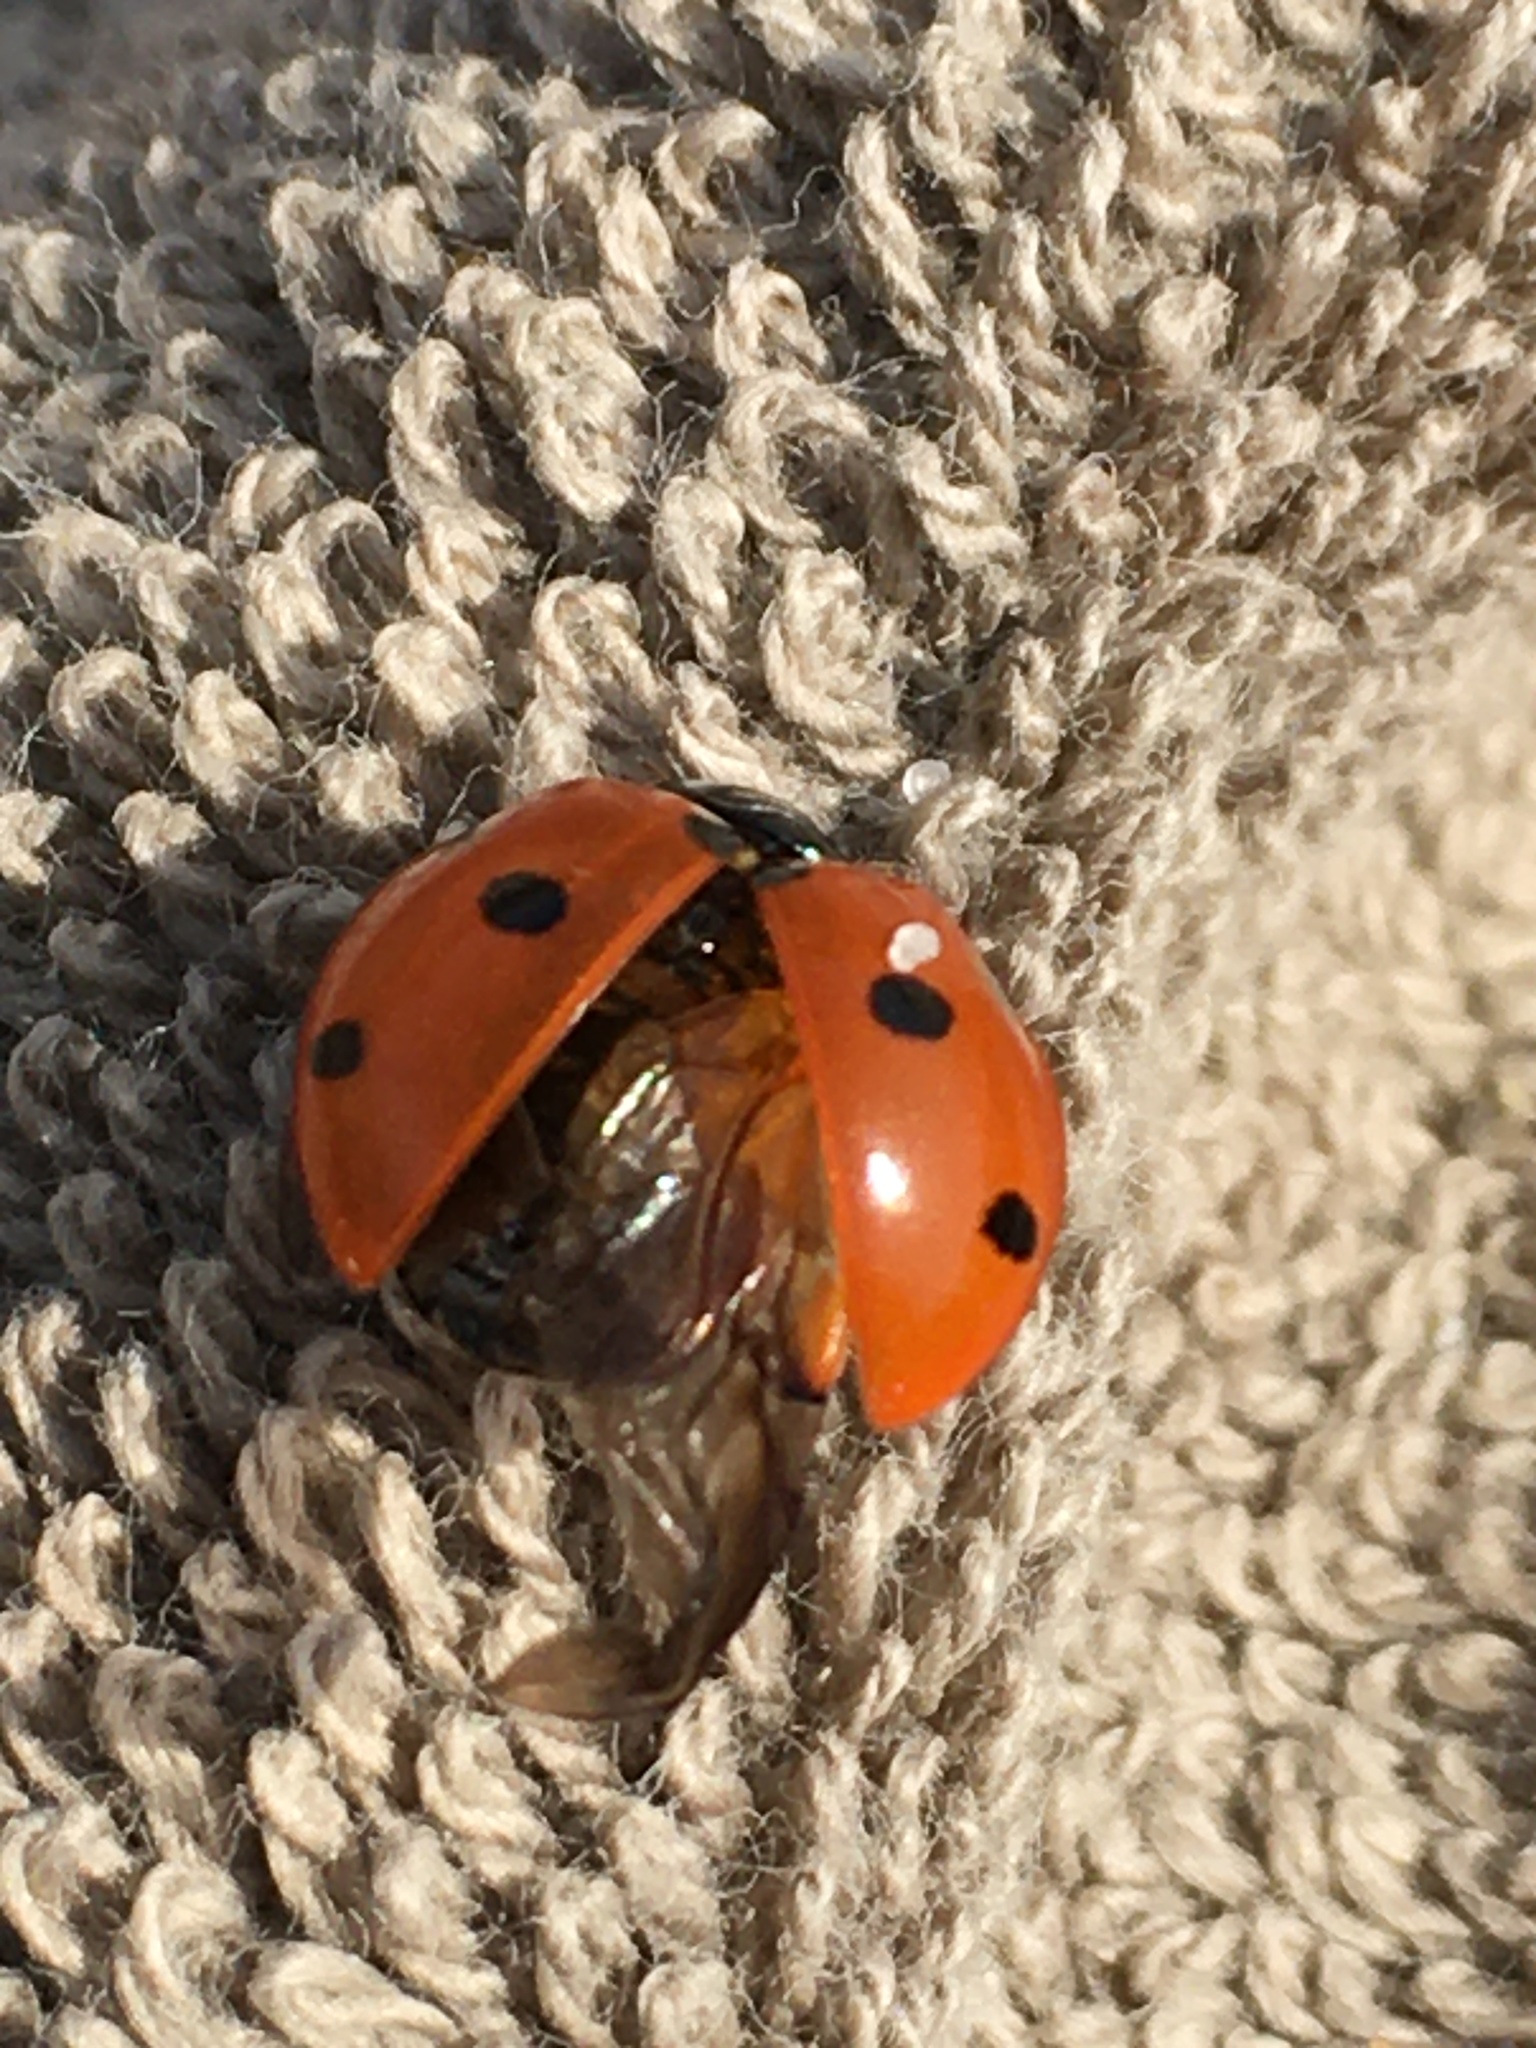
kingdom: Animalia
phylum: Arthropoda
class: Insecta
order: Coleoptera
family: Coccinellidae
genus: Coccinella
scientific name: Coccinella septempunctata
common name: Sevenspotted lady beetle
